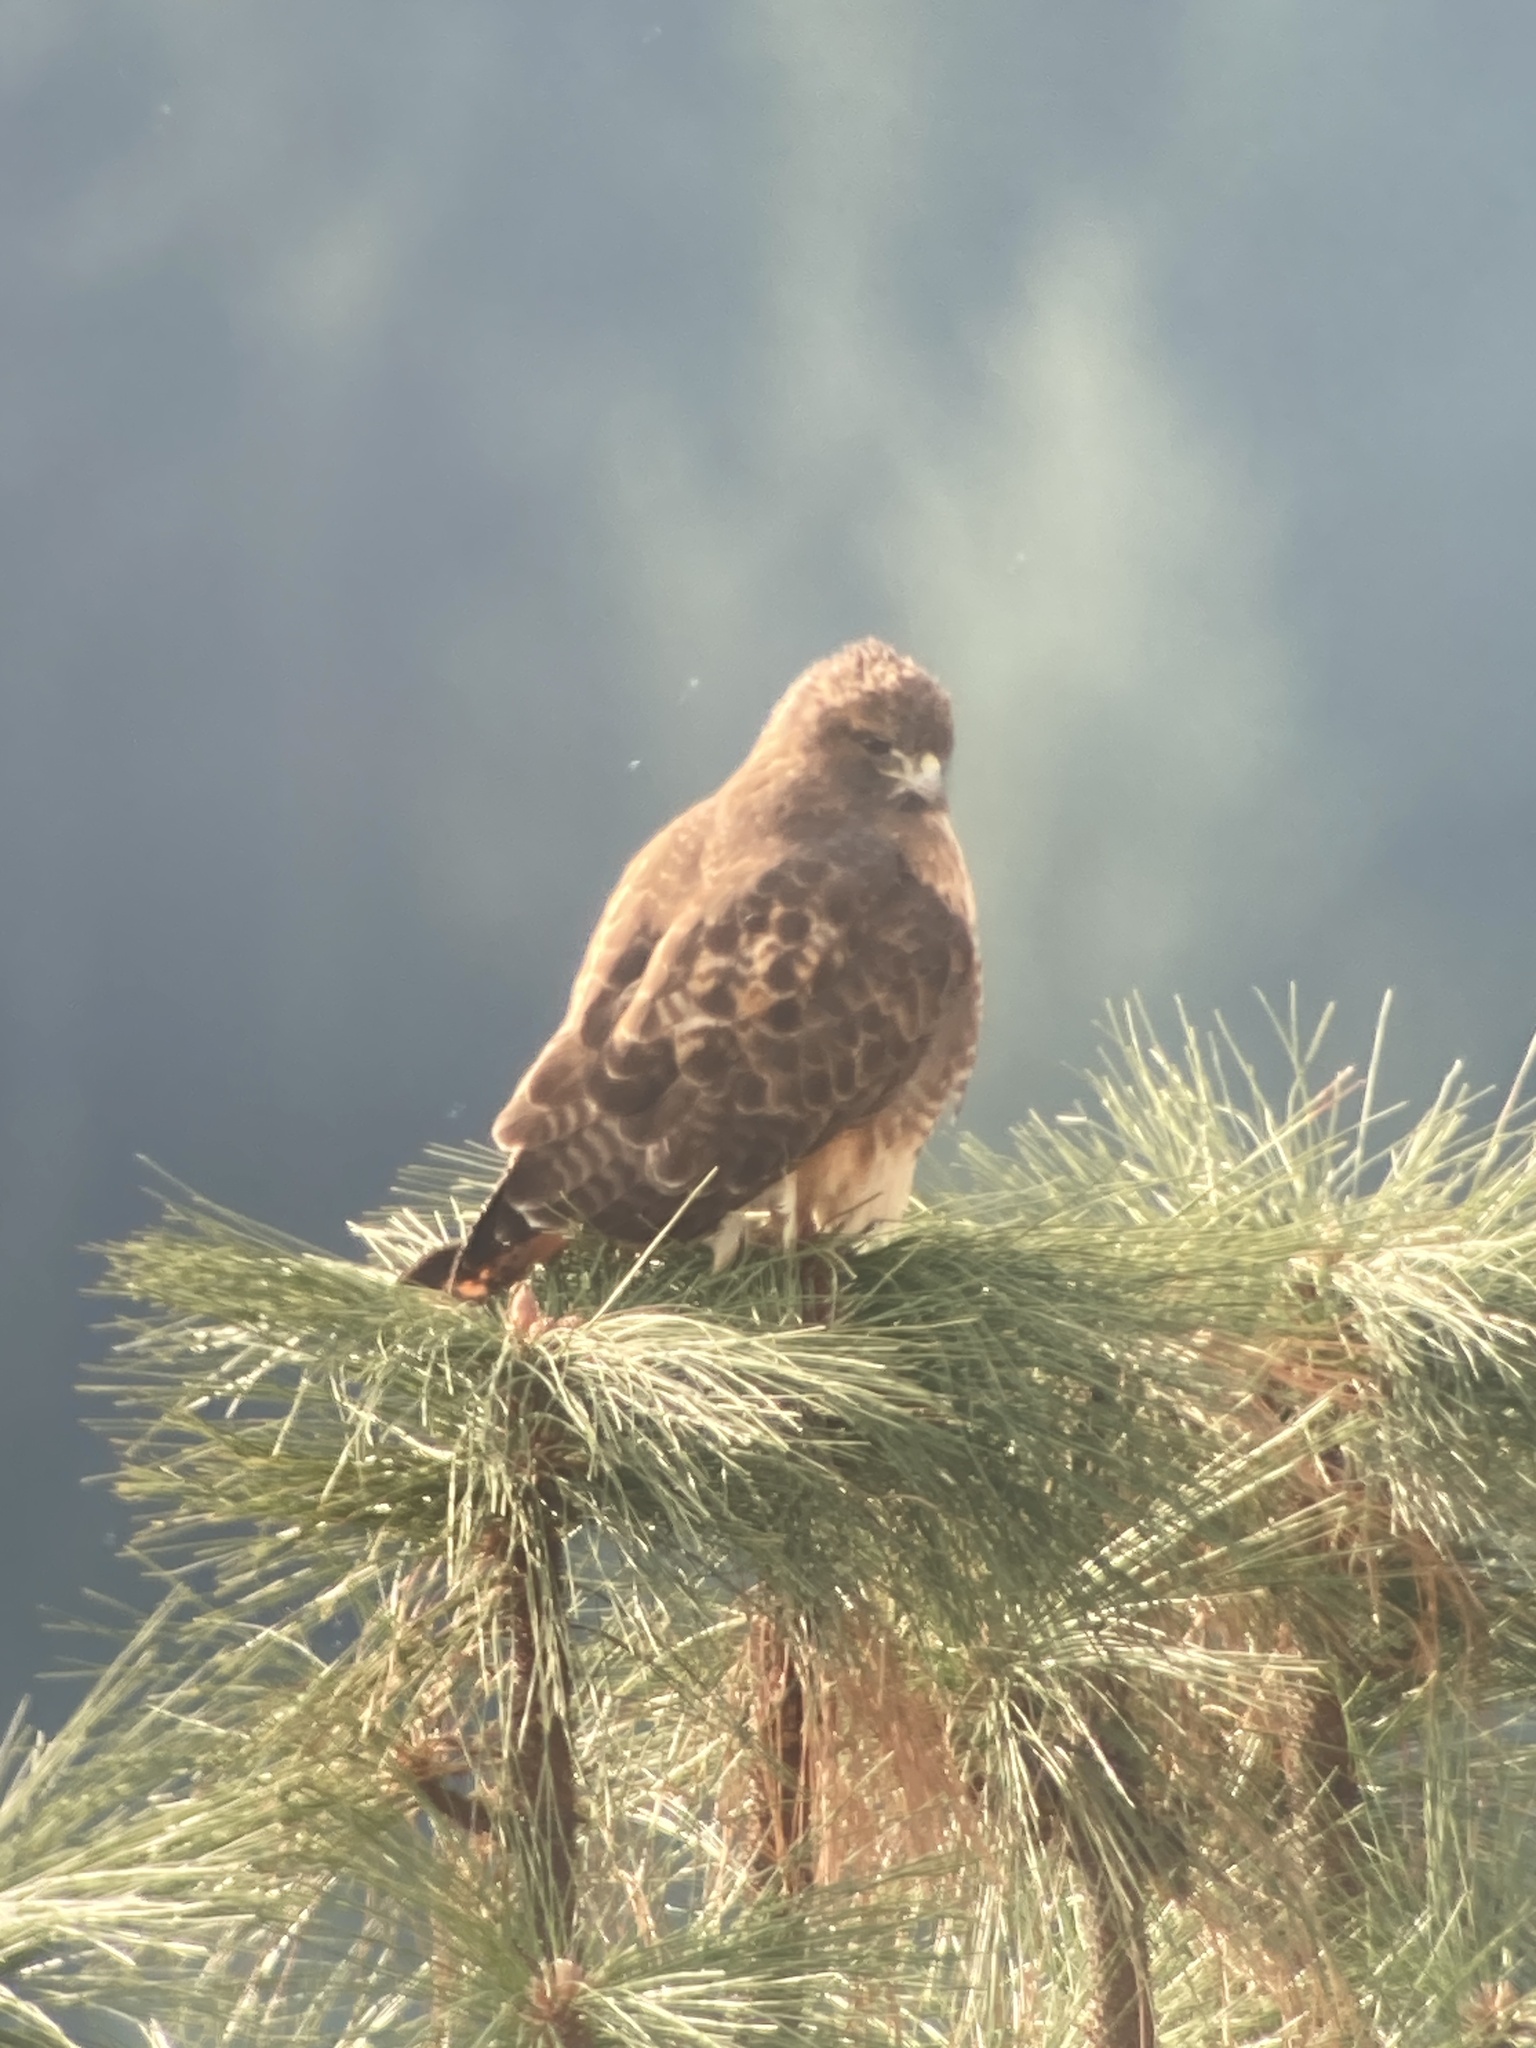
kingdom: Animalia
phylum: Chordata
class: Aves
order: Accipitriformes
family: Accipitridae
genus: Buteo
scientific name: Buteo jamaicensis
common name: Red-tailed hawk
